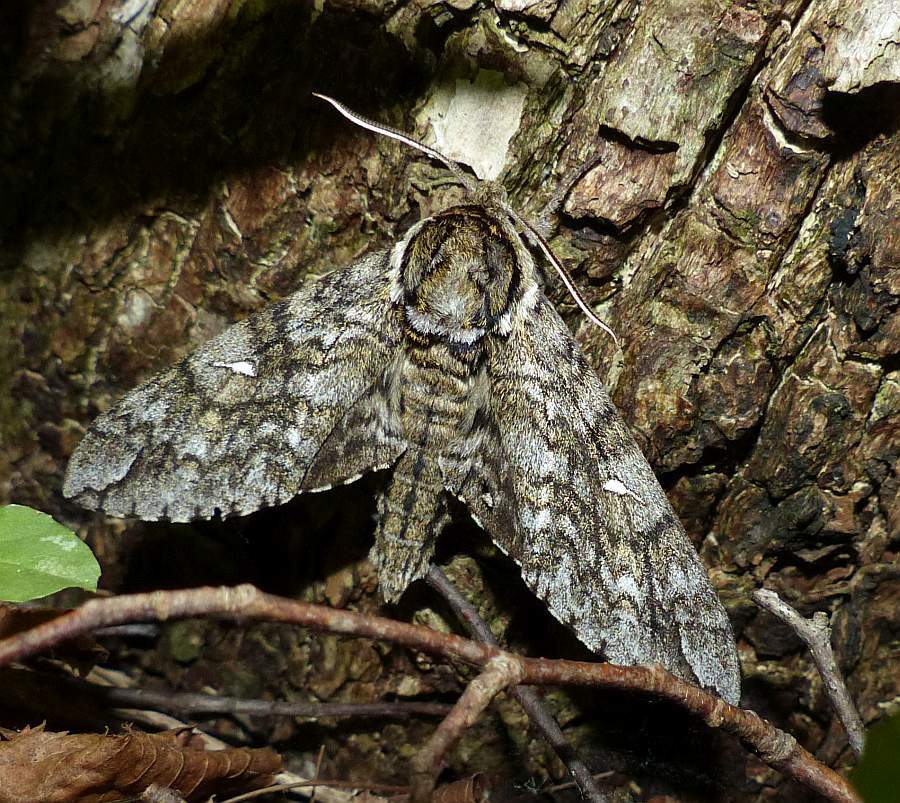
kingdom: Animalia
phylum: Arthropoda
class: Insecta
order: Lepidoptera
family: Sphingidae
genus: Ceratomia
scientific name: Ceratomia undulosa
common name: Waved sphinx
